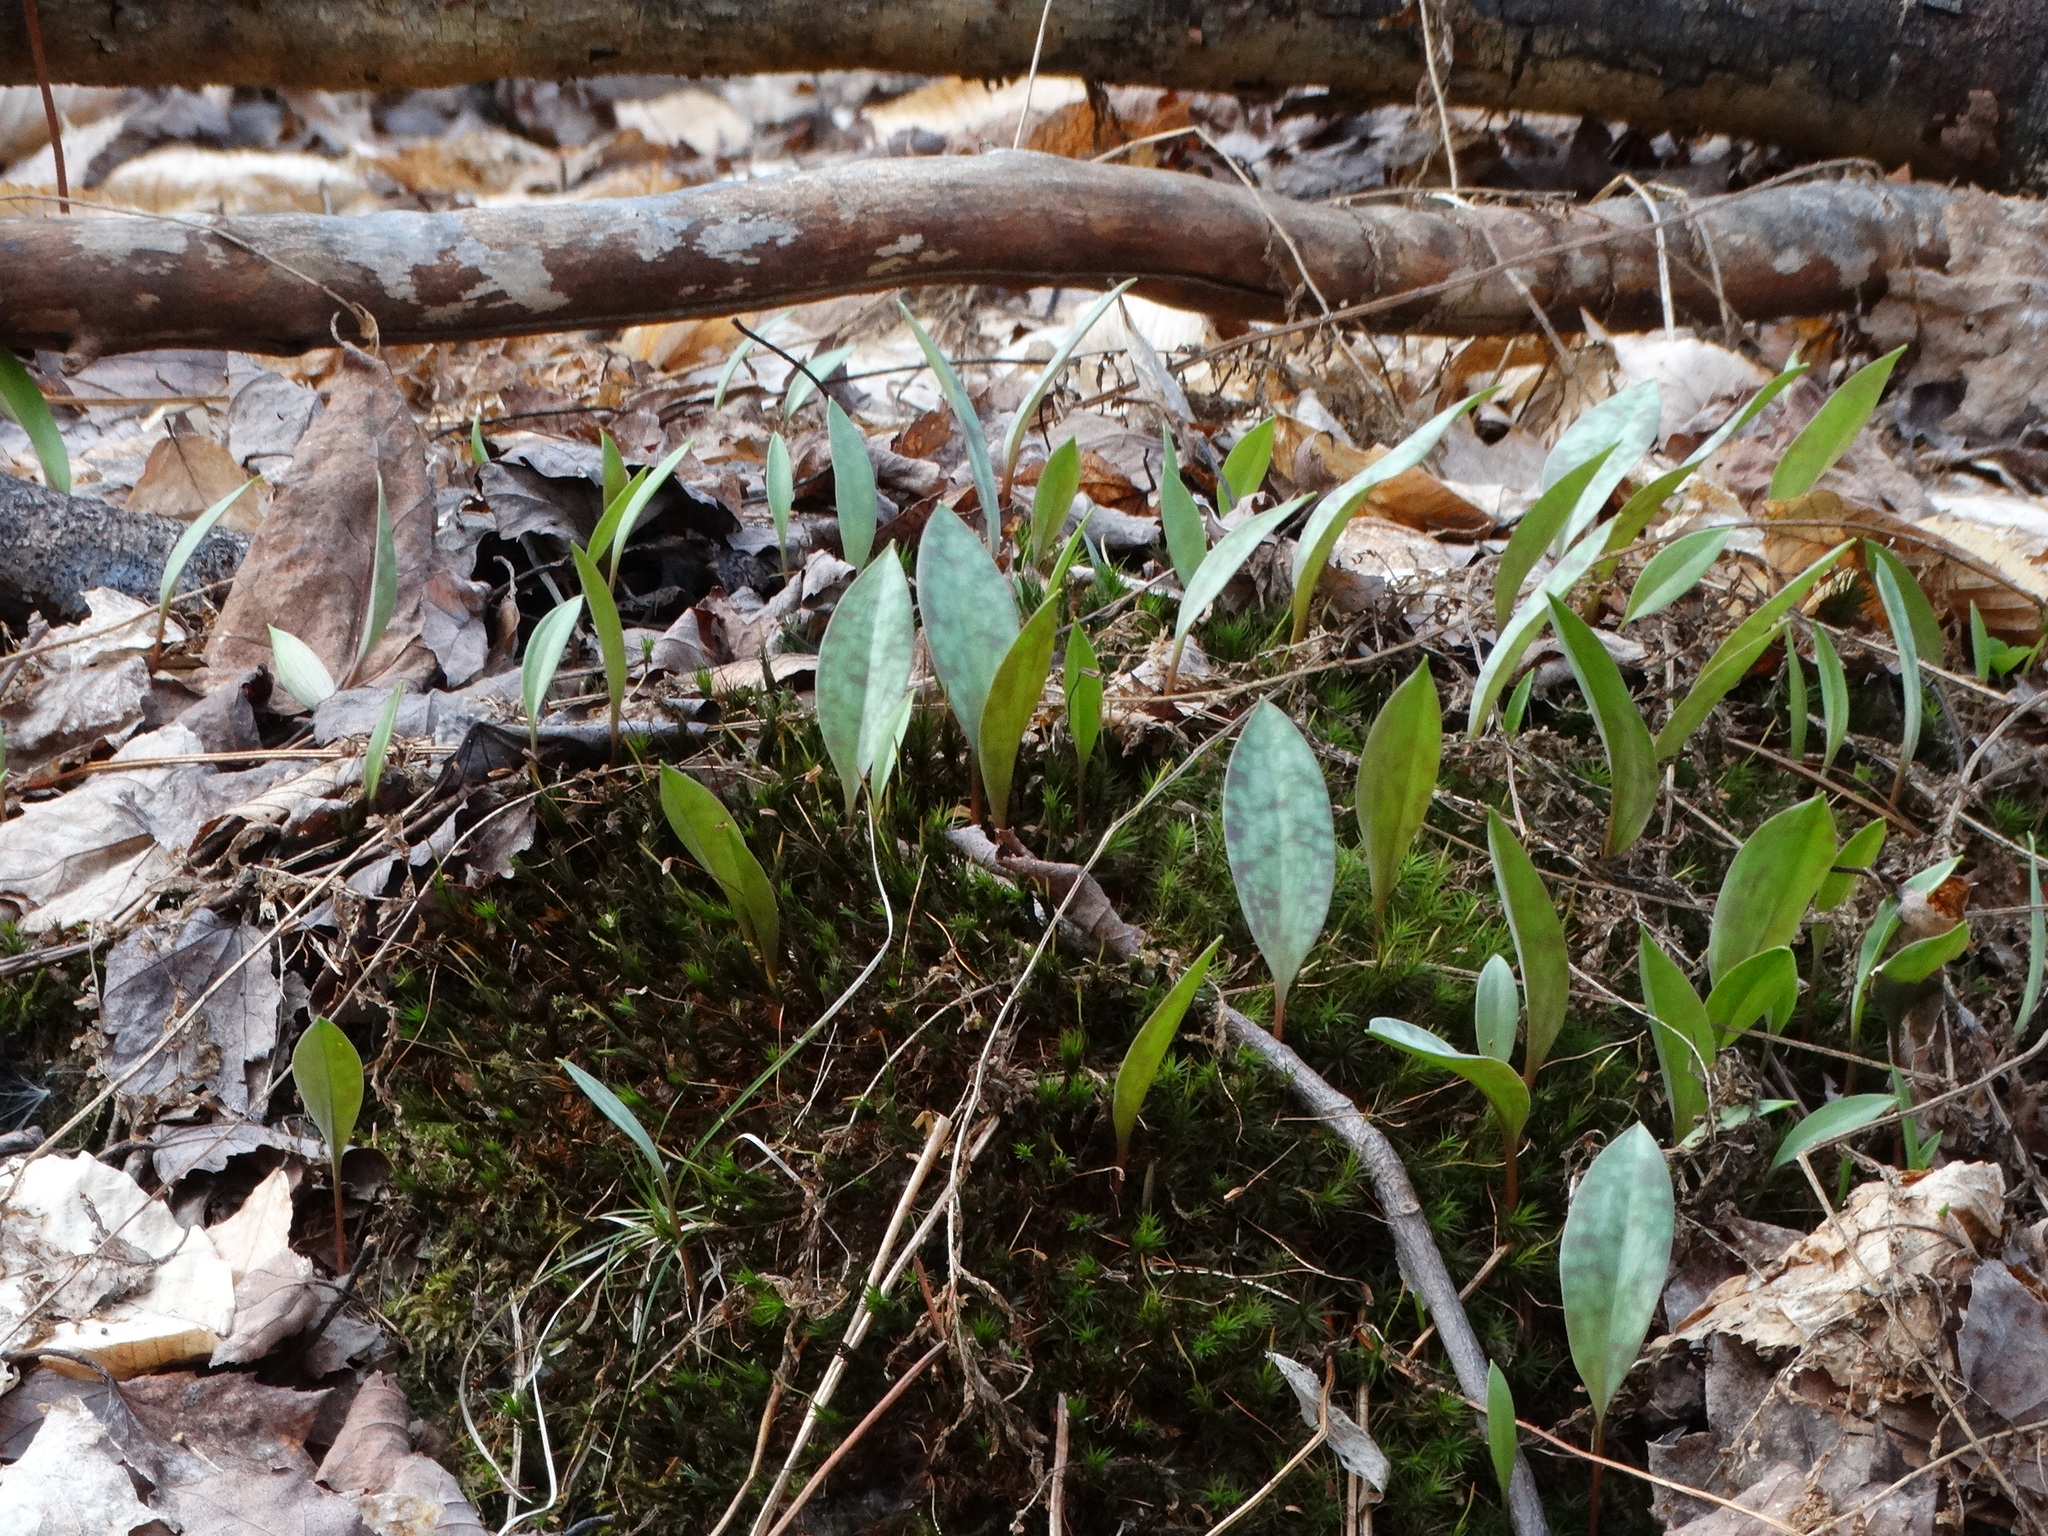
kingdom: Plantae
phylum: Tracheophyta
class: Liliopsida
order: Liliales
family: Liliaceae
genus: Erythronium
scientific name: Erythronium americanum
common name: Yellow adder's-tongue
